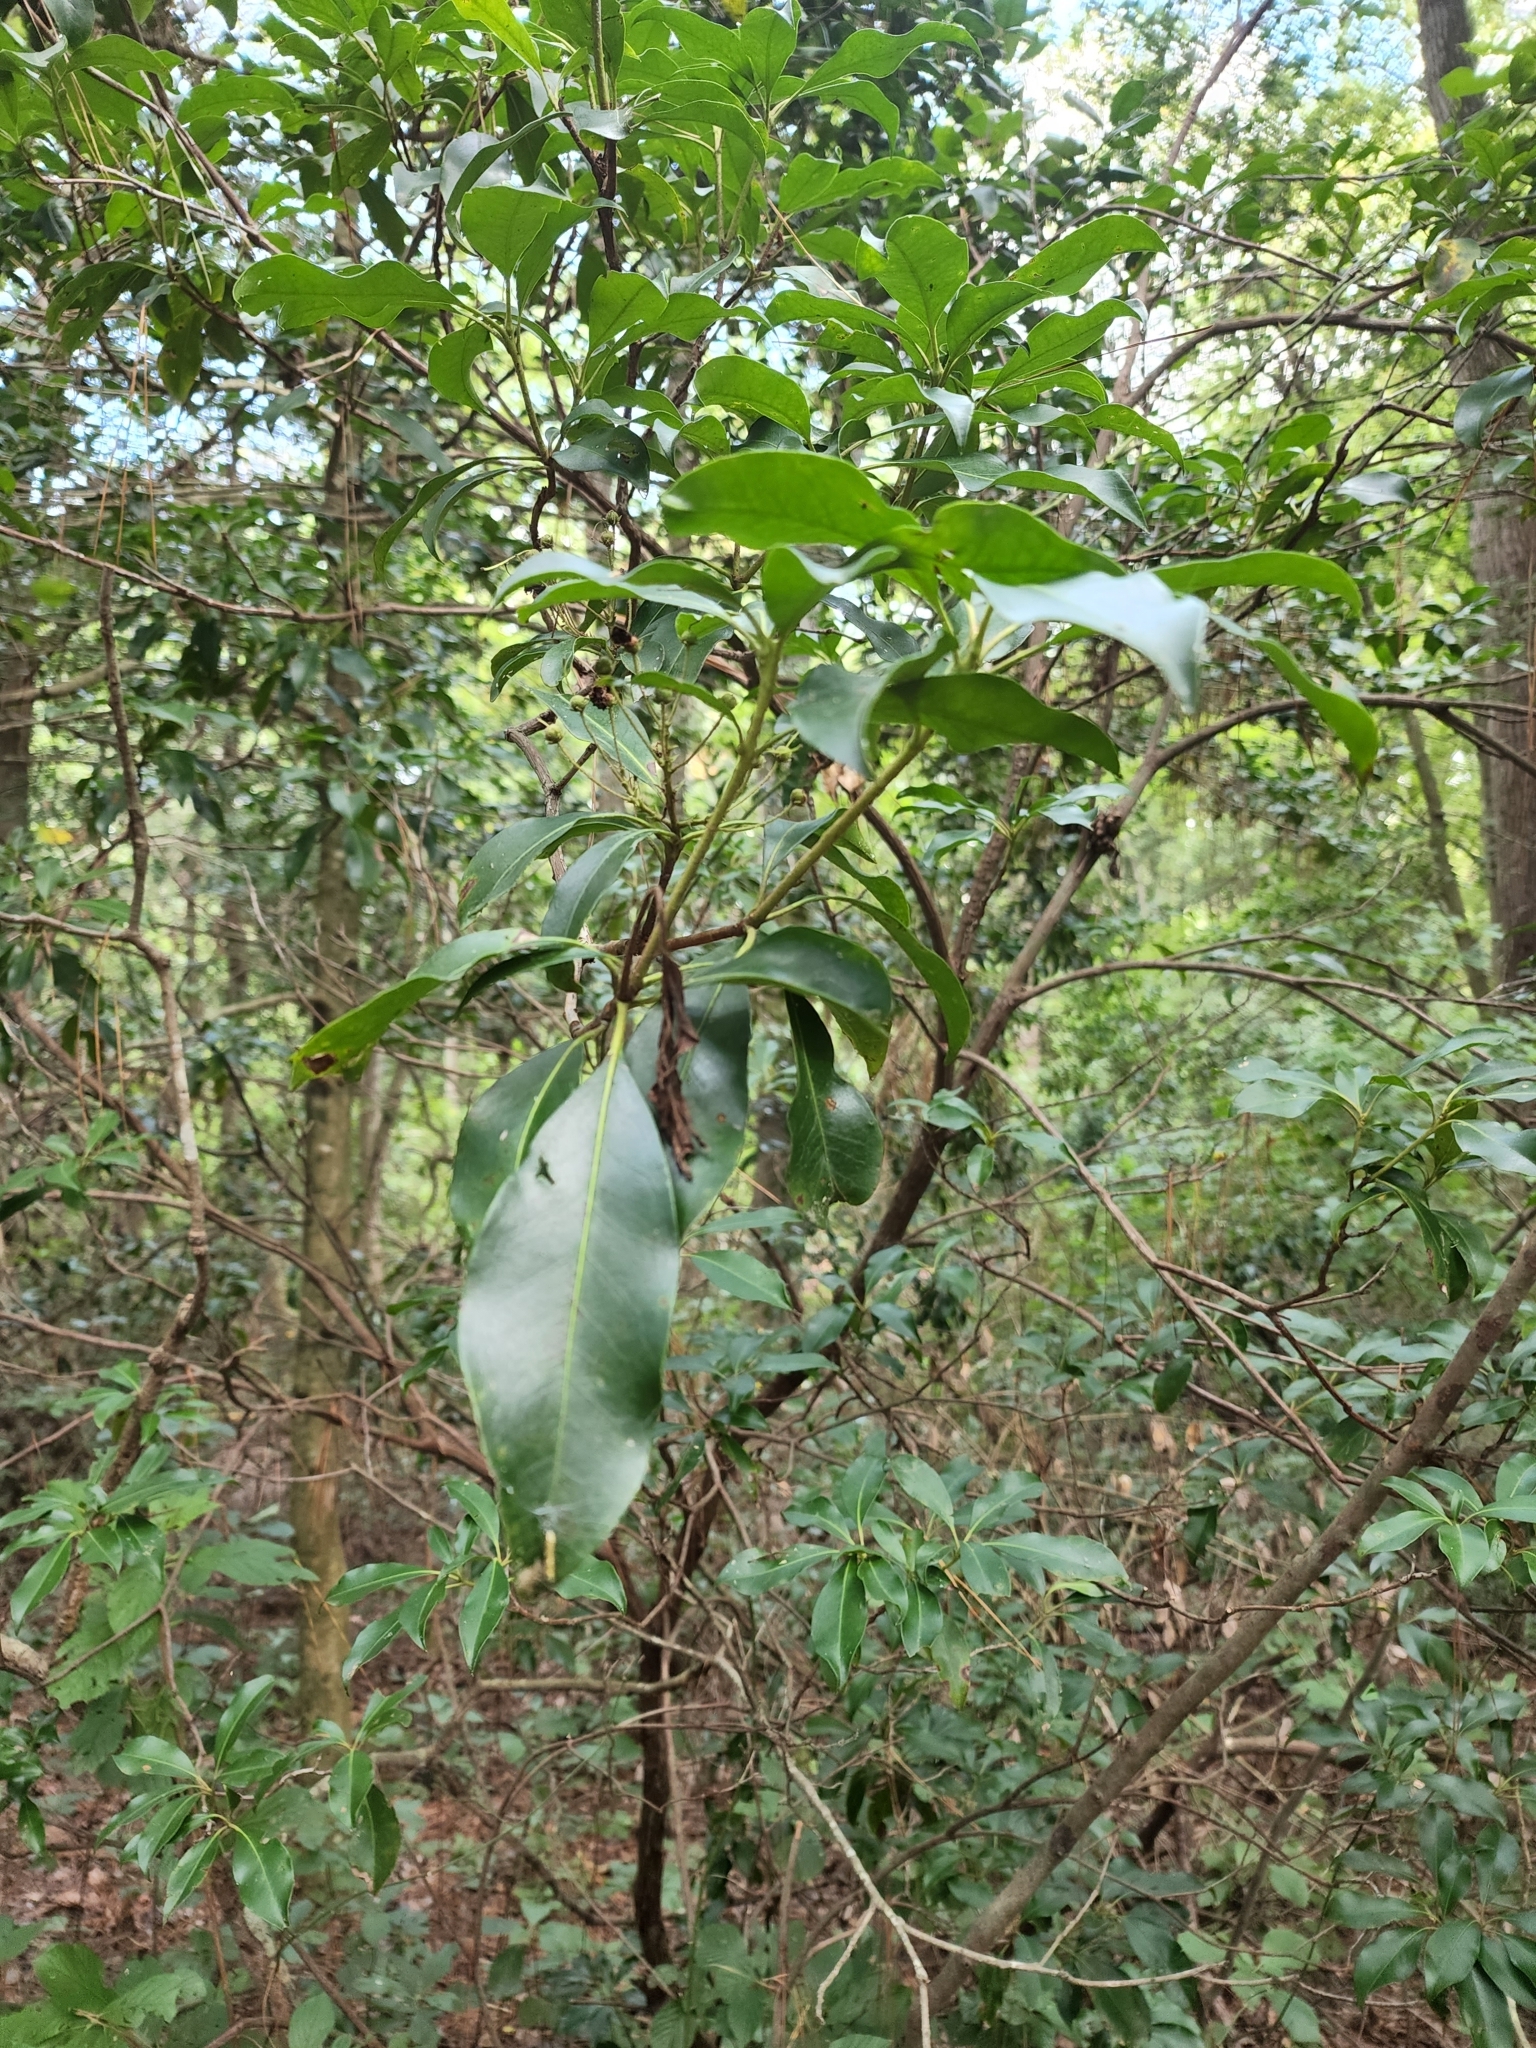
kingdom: Plantae
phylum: Tracheophyta
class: Magnoliopsida
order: Ericales
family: Ericaceae
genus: Kalmia
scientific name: Kalmia latifolia
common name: Mountain-laurel
